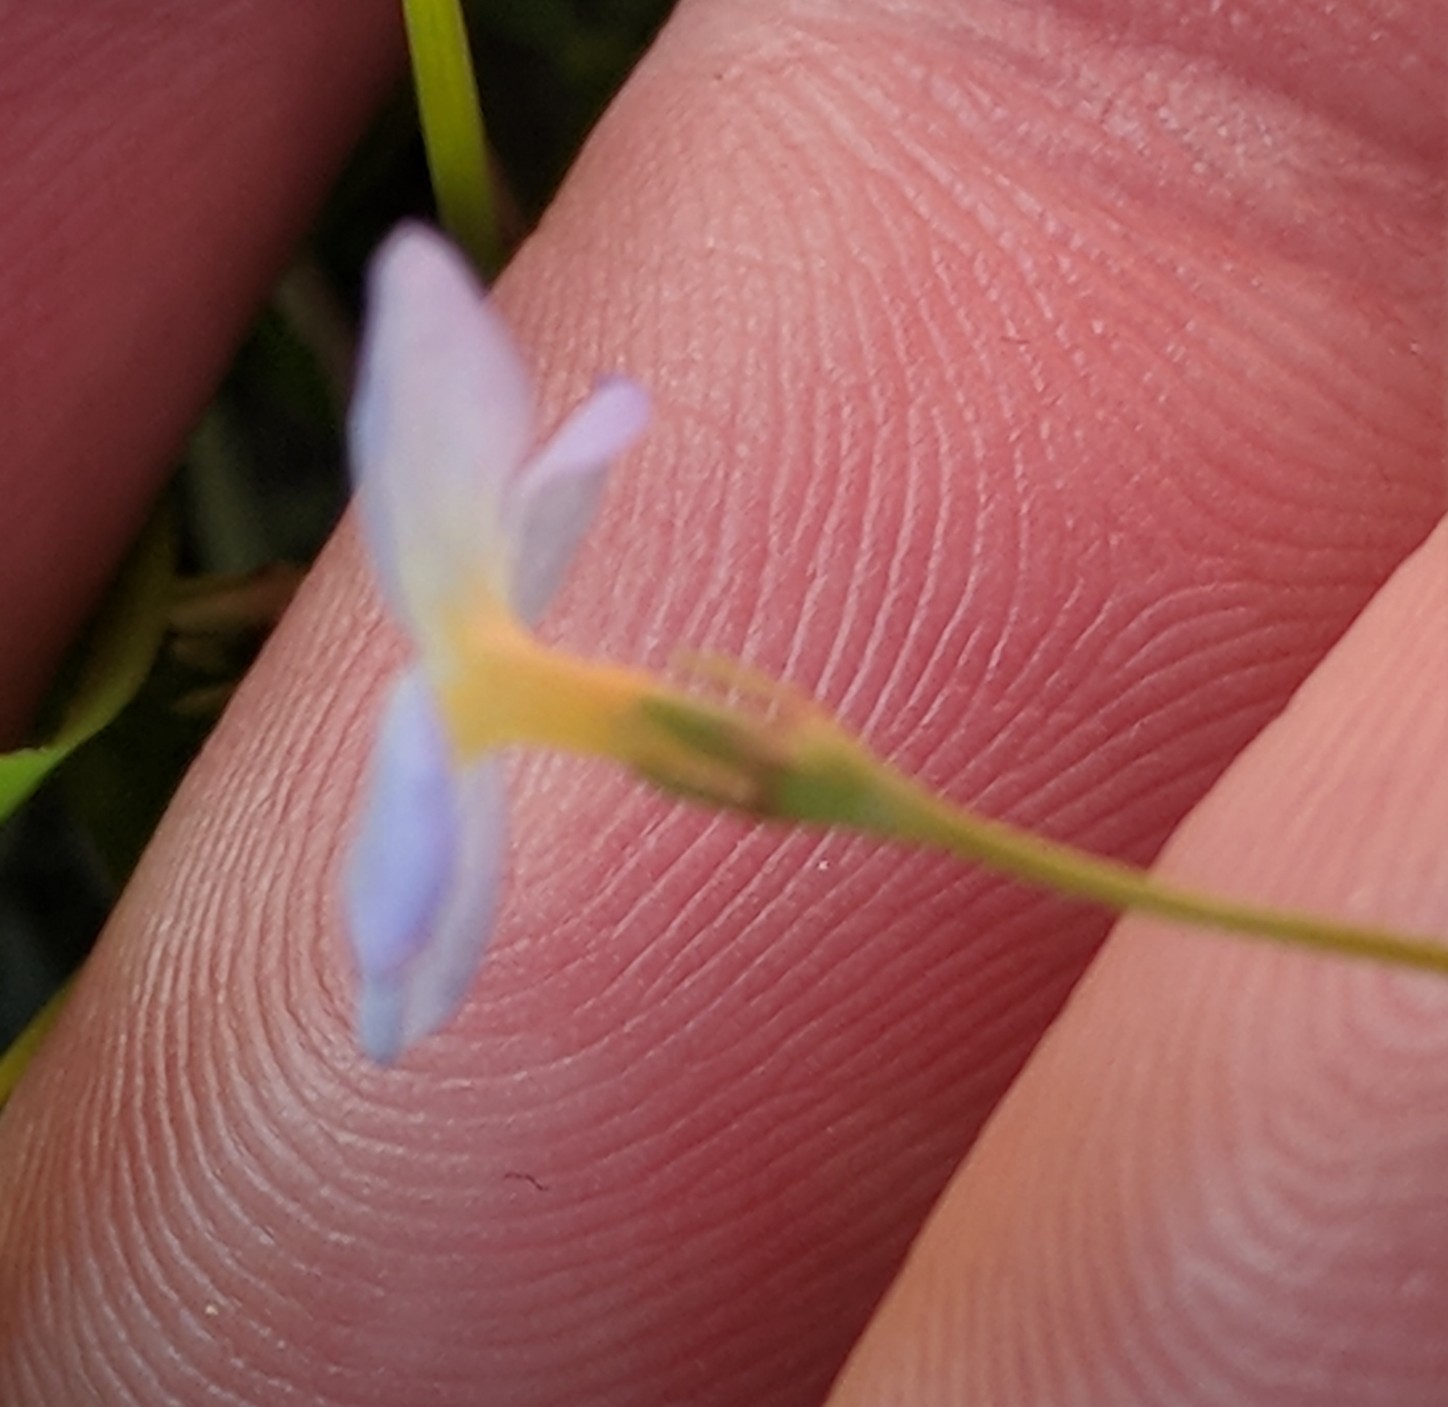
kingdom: Plantae
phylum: Tracheophyta
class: Magnoliopsida
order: Gentianales
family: Rubiaceae
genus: Houstonia
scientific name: Houstonia caerulea
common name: Bluets
